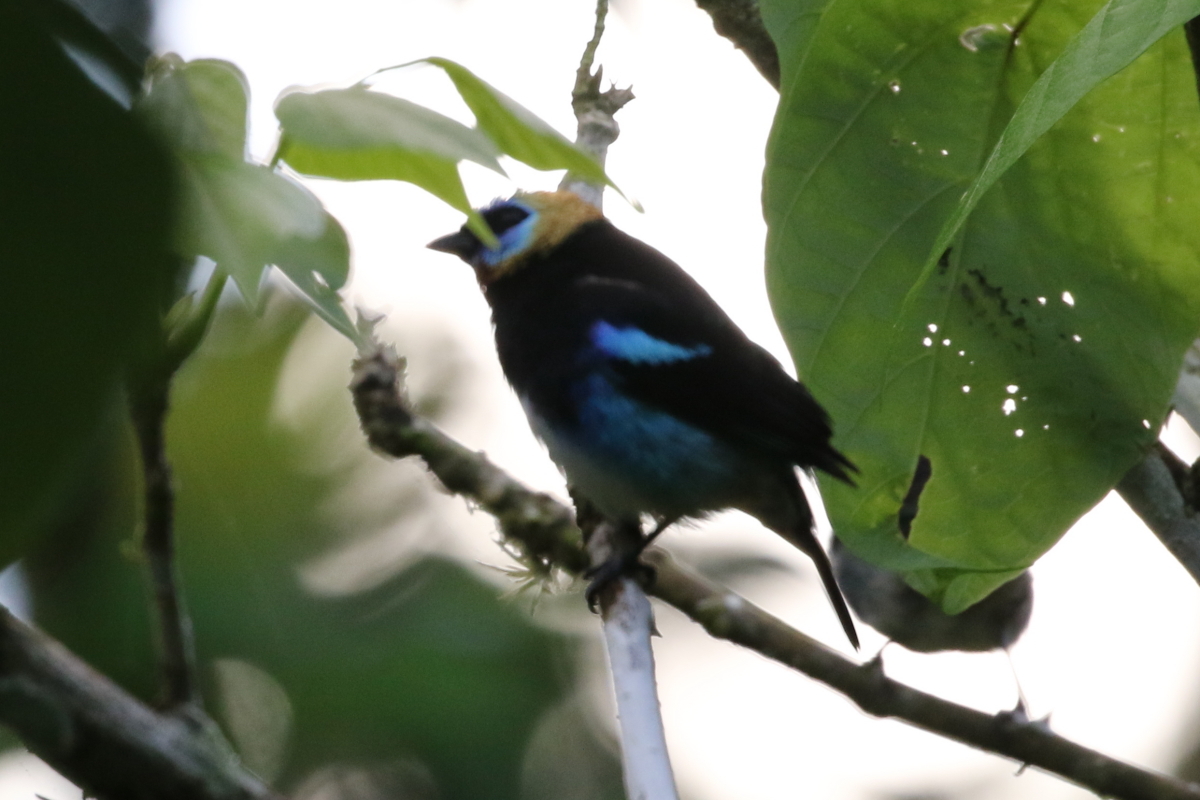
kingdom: Animalia
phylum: Chordata
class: Aves
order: Passeriformes
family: Thraupidae
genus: Stilpnia
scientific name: Stilpnia larvata
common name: Golden-hooded tanager
